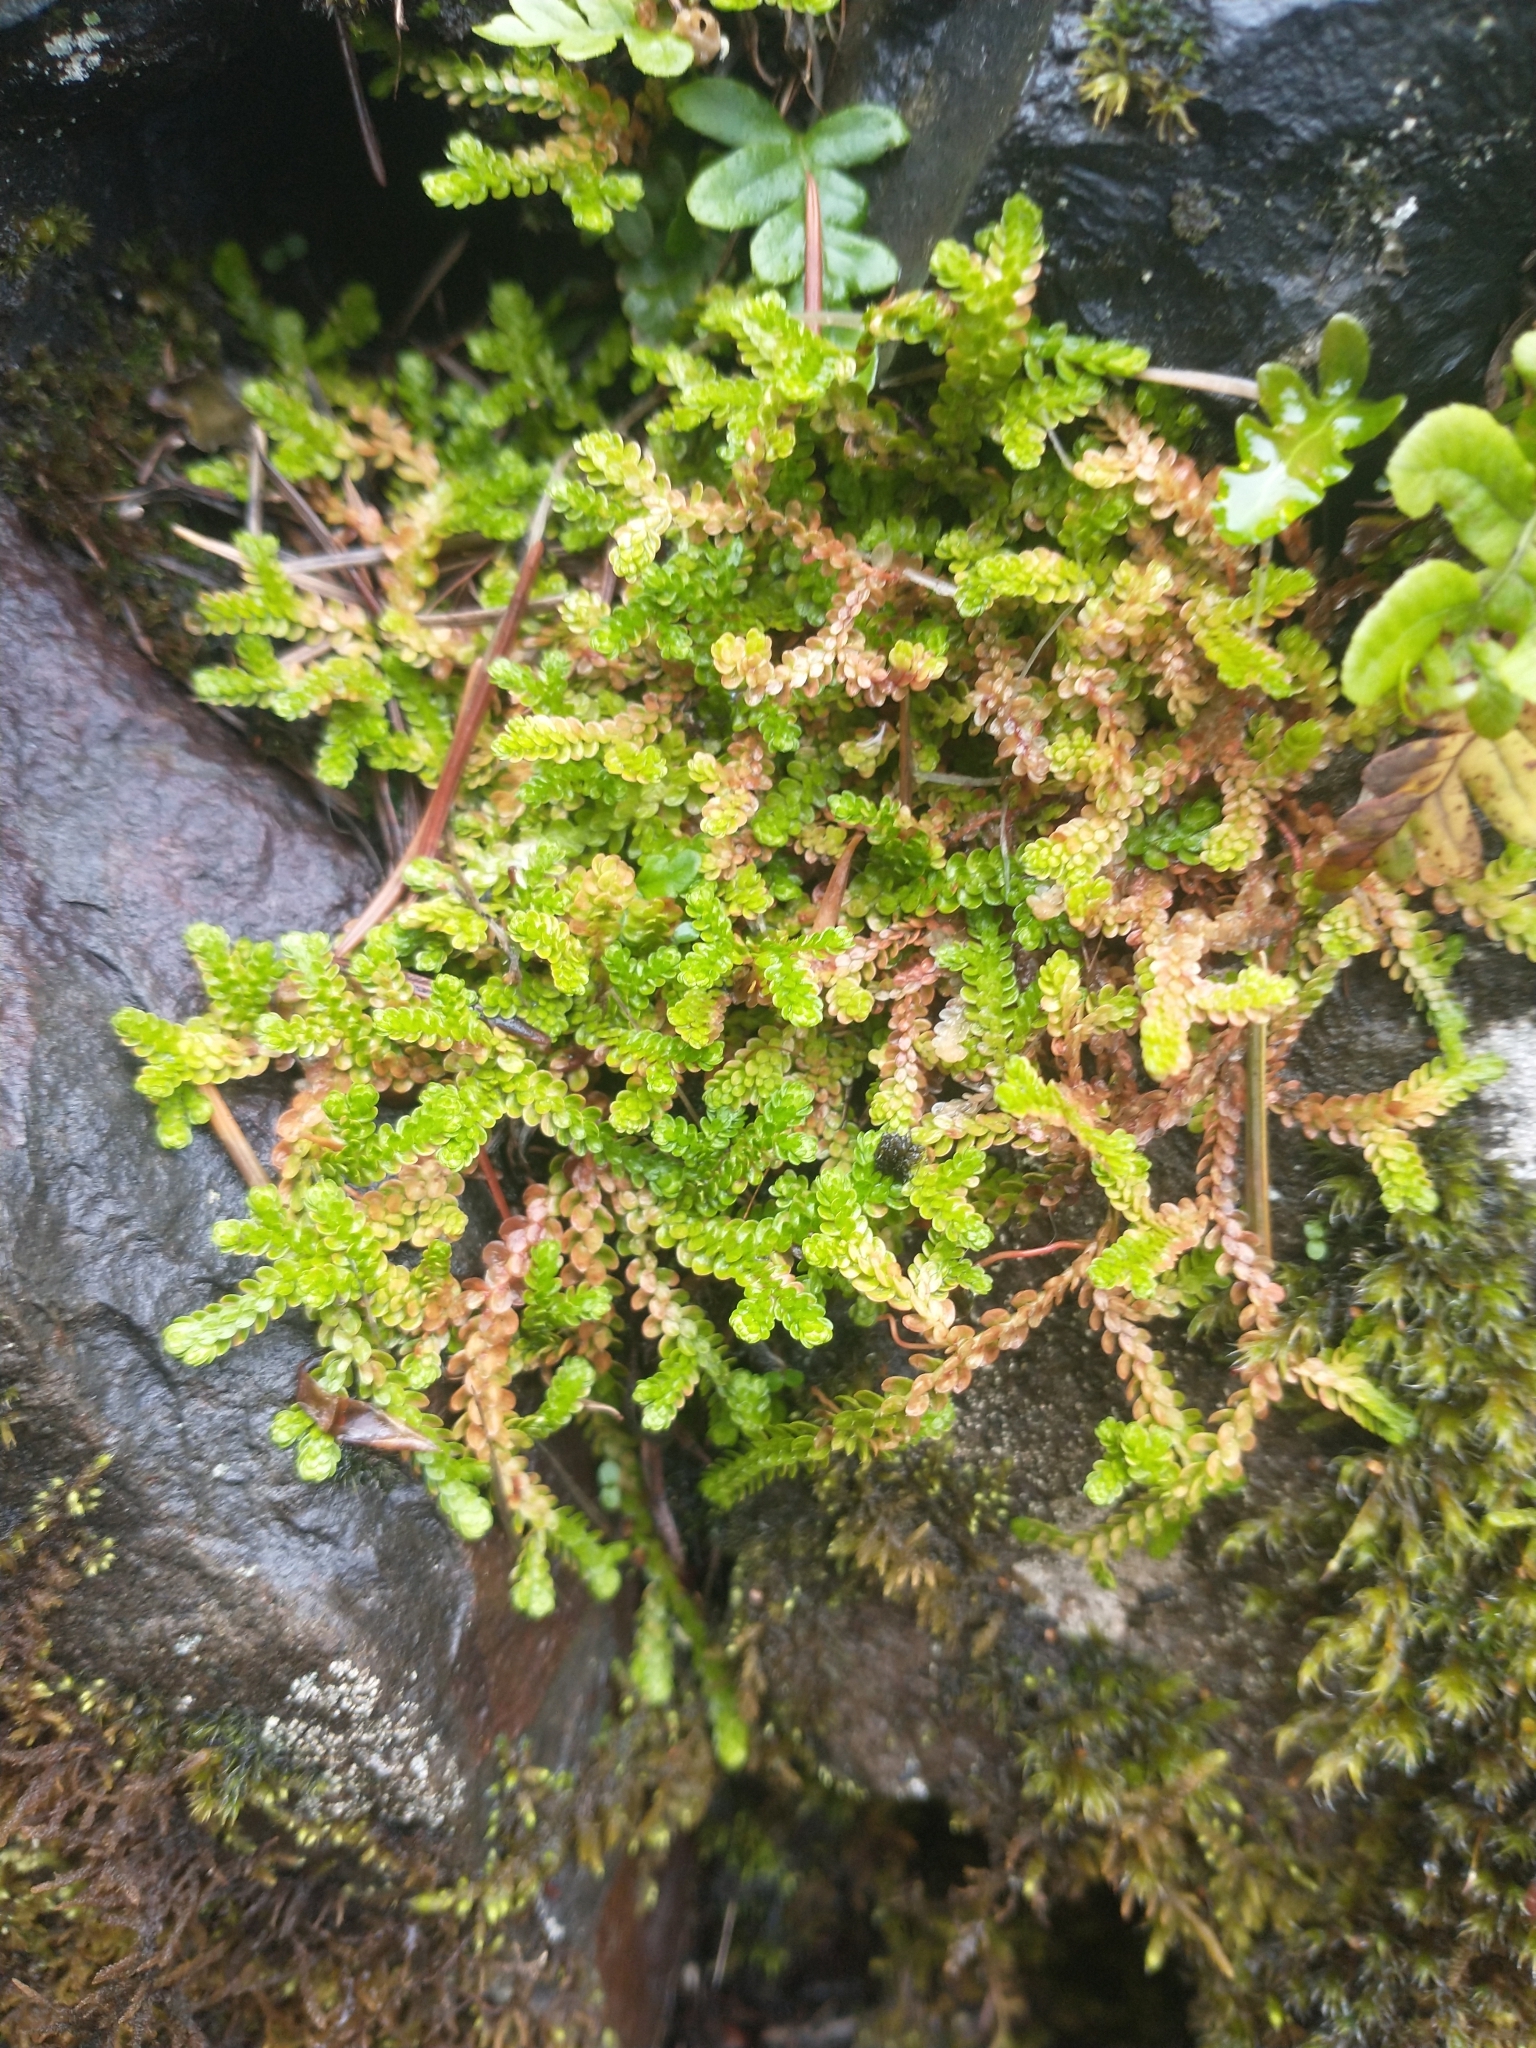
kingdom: Plantae
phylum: Tracheophyta
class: Lycopodiopsida
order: Selaginellales
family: Selaginellaceae
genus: Selaginella
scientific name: Selaginella douglasii
